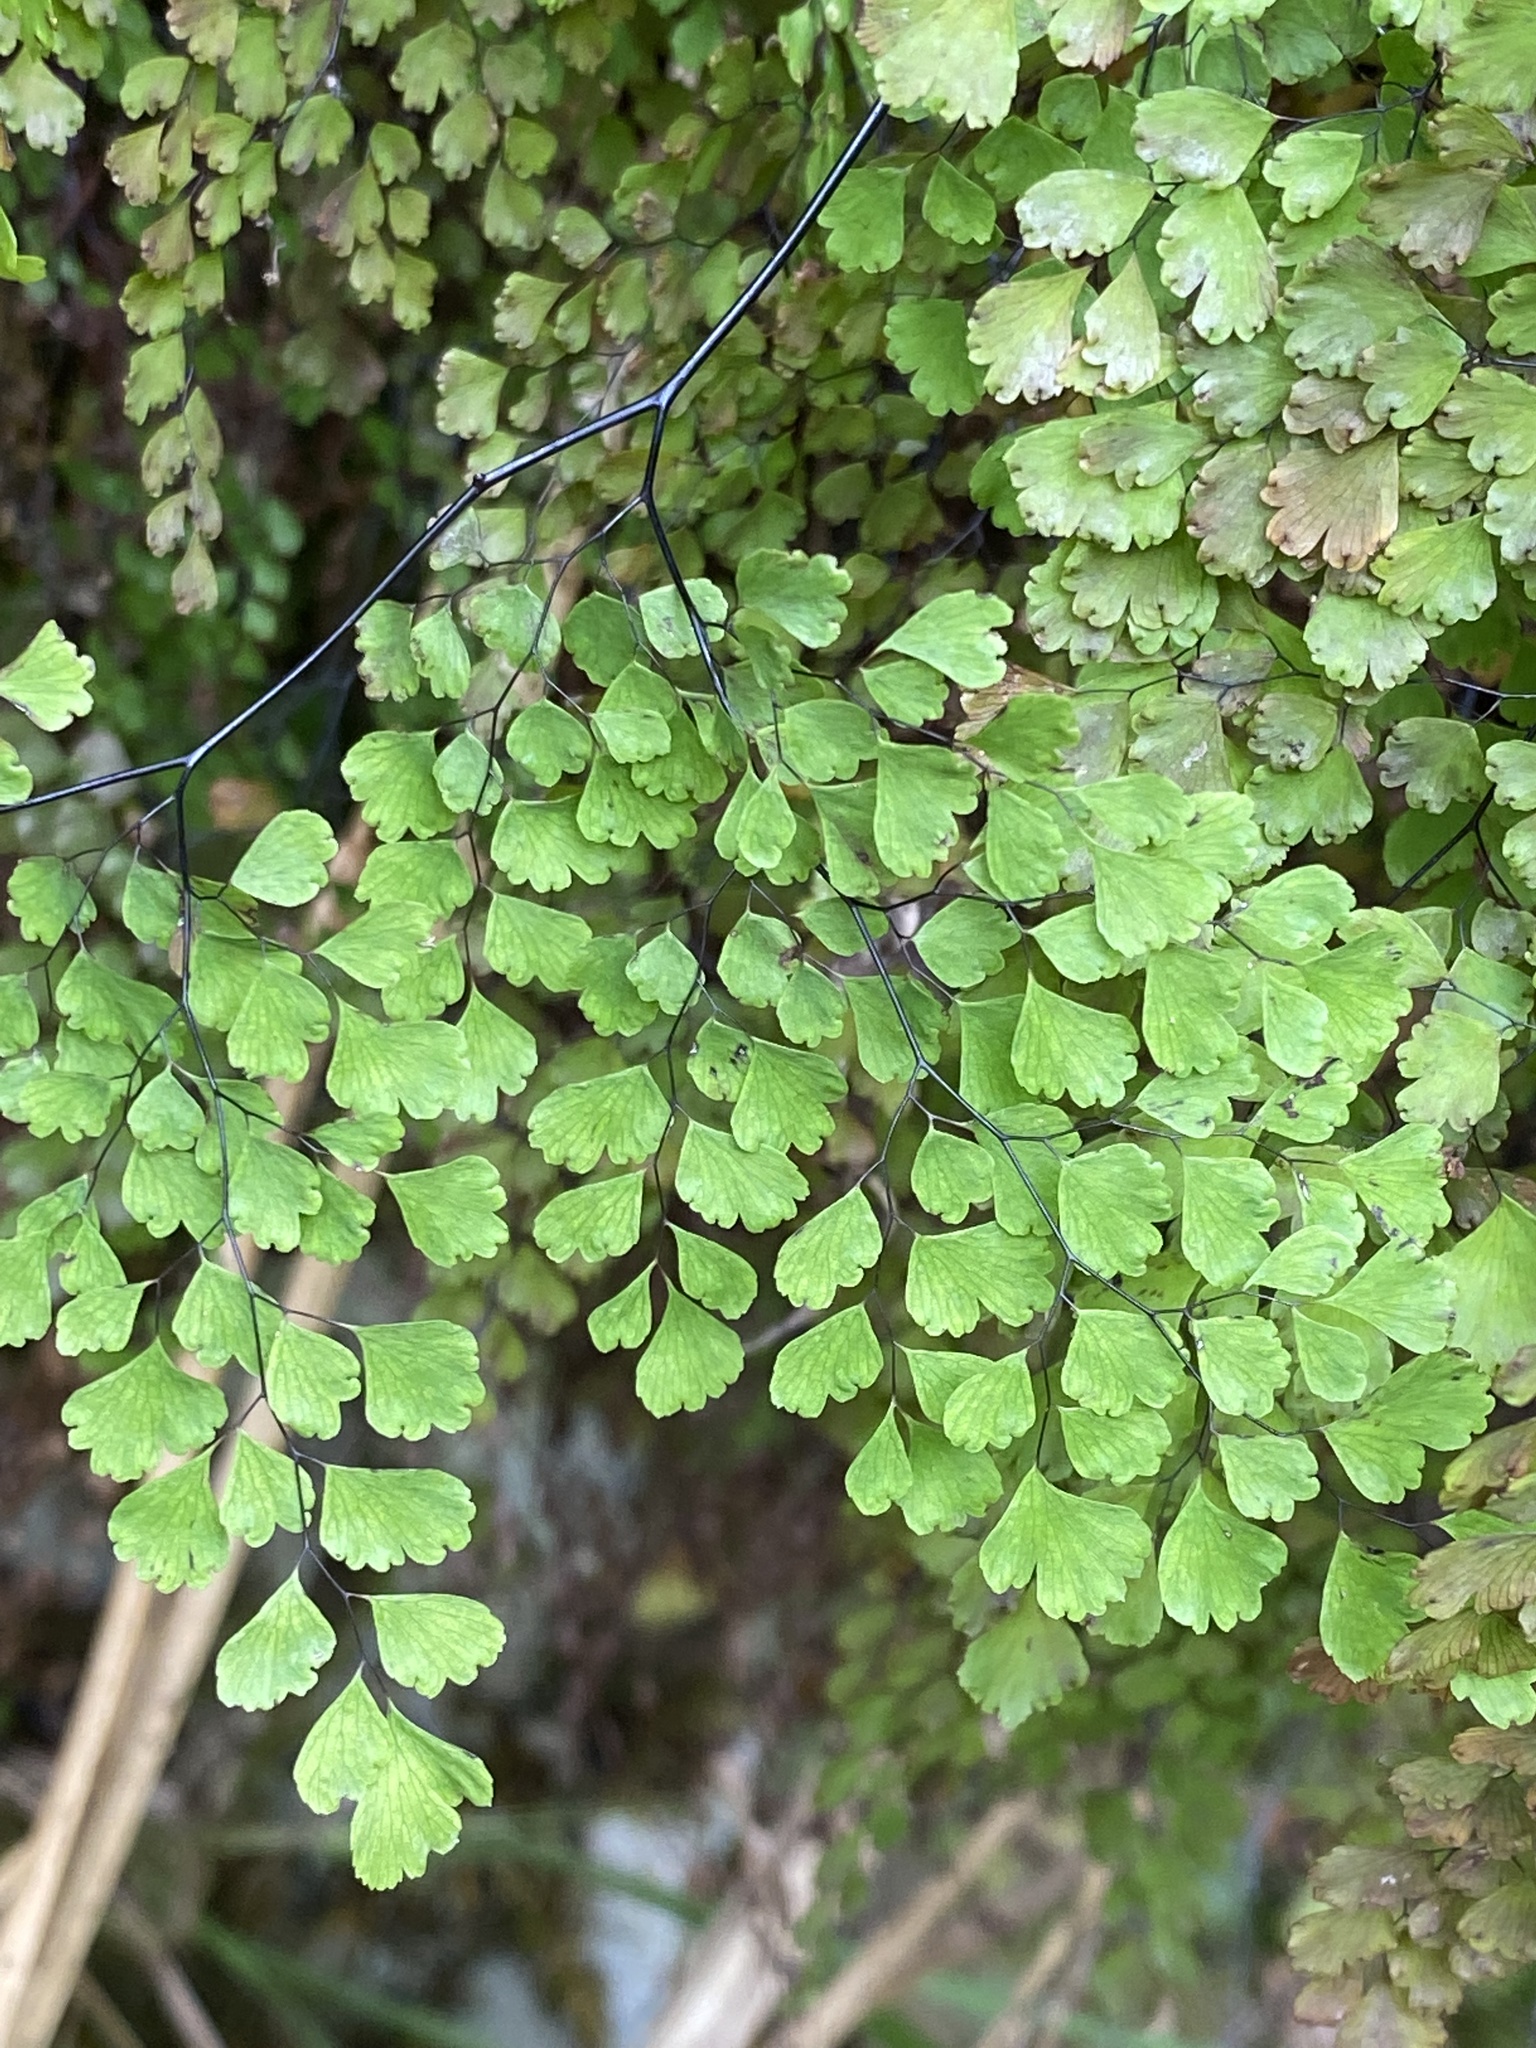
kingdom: Plantae
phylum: Tracheophyta
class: Polypodiopsida
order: Polypodiales
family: Pteridaceae
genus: Adiantum
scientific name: Adiantum raddianum
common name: Delta maidenhair fern
